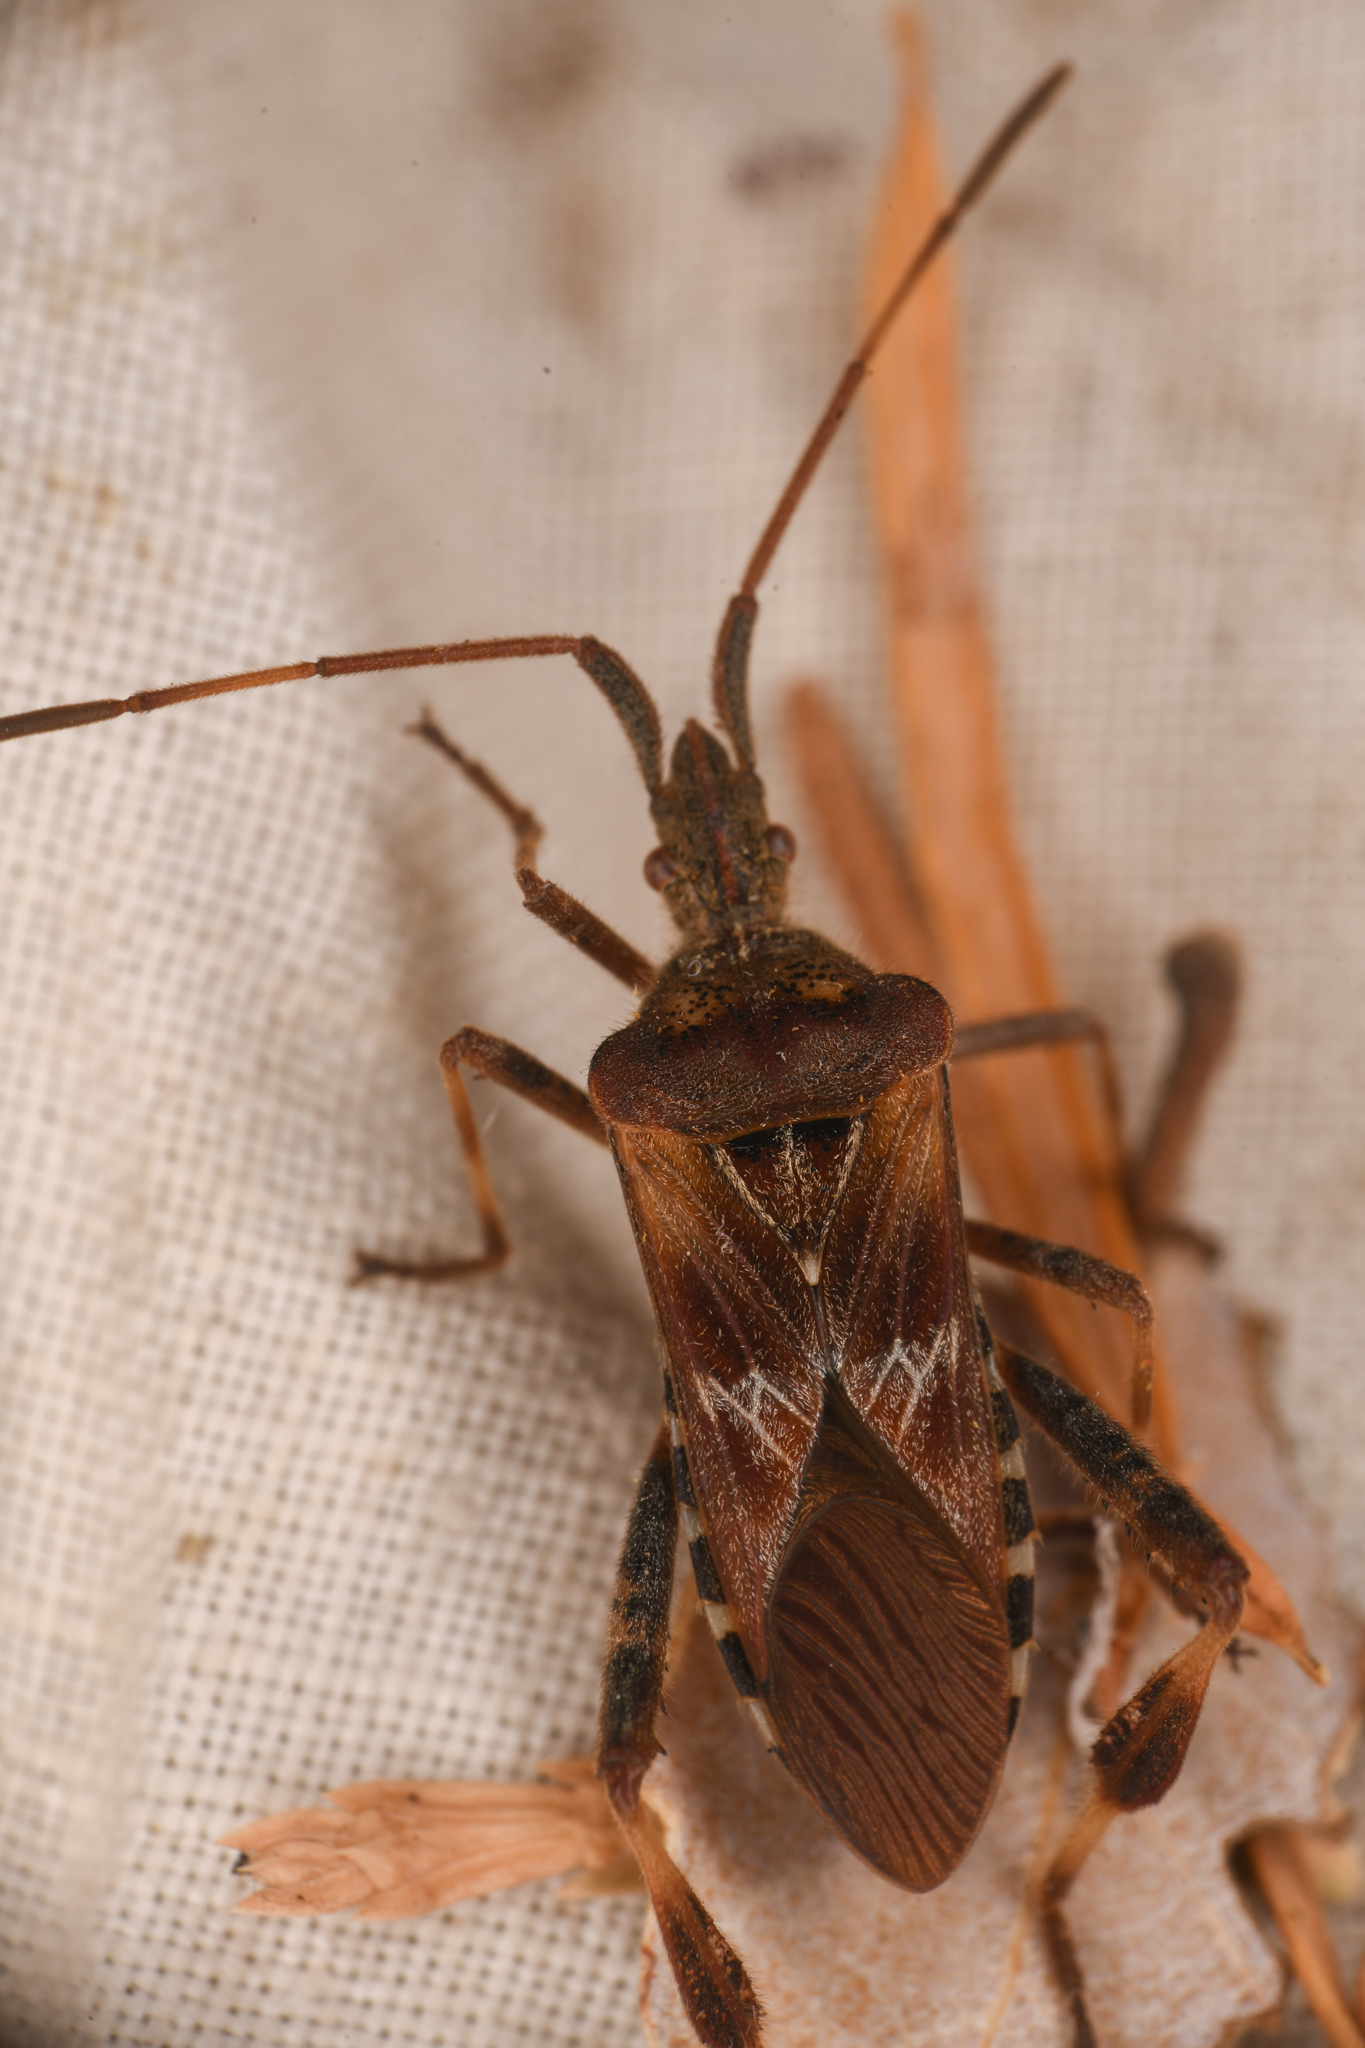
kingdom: Animalia
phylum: Arthropoda
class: Insecta
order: Hemiptera
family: Coreidae
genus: Leptoglossus
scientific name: Leptoglossus occidentalis
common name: Western conifer-seed bug
